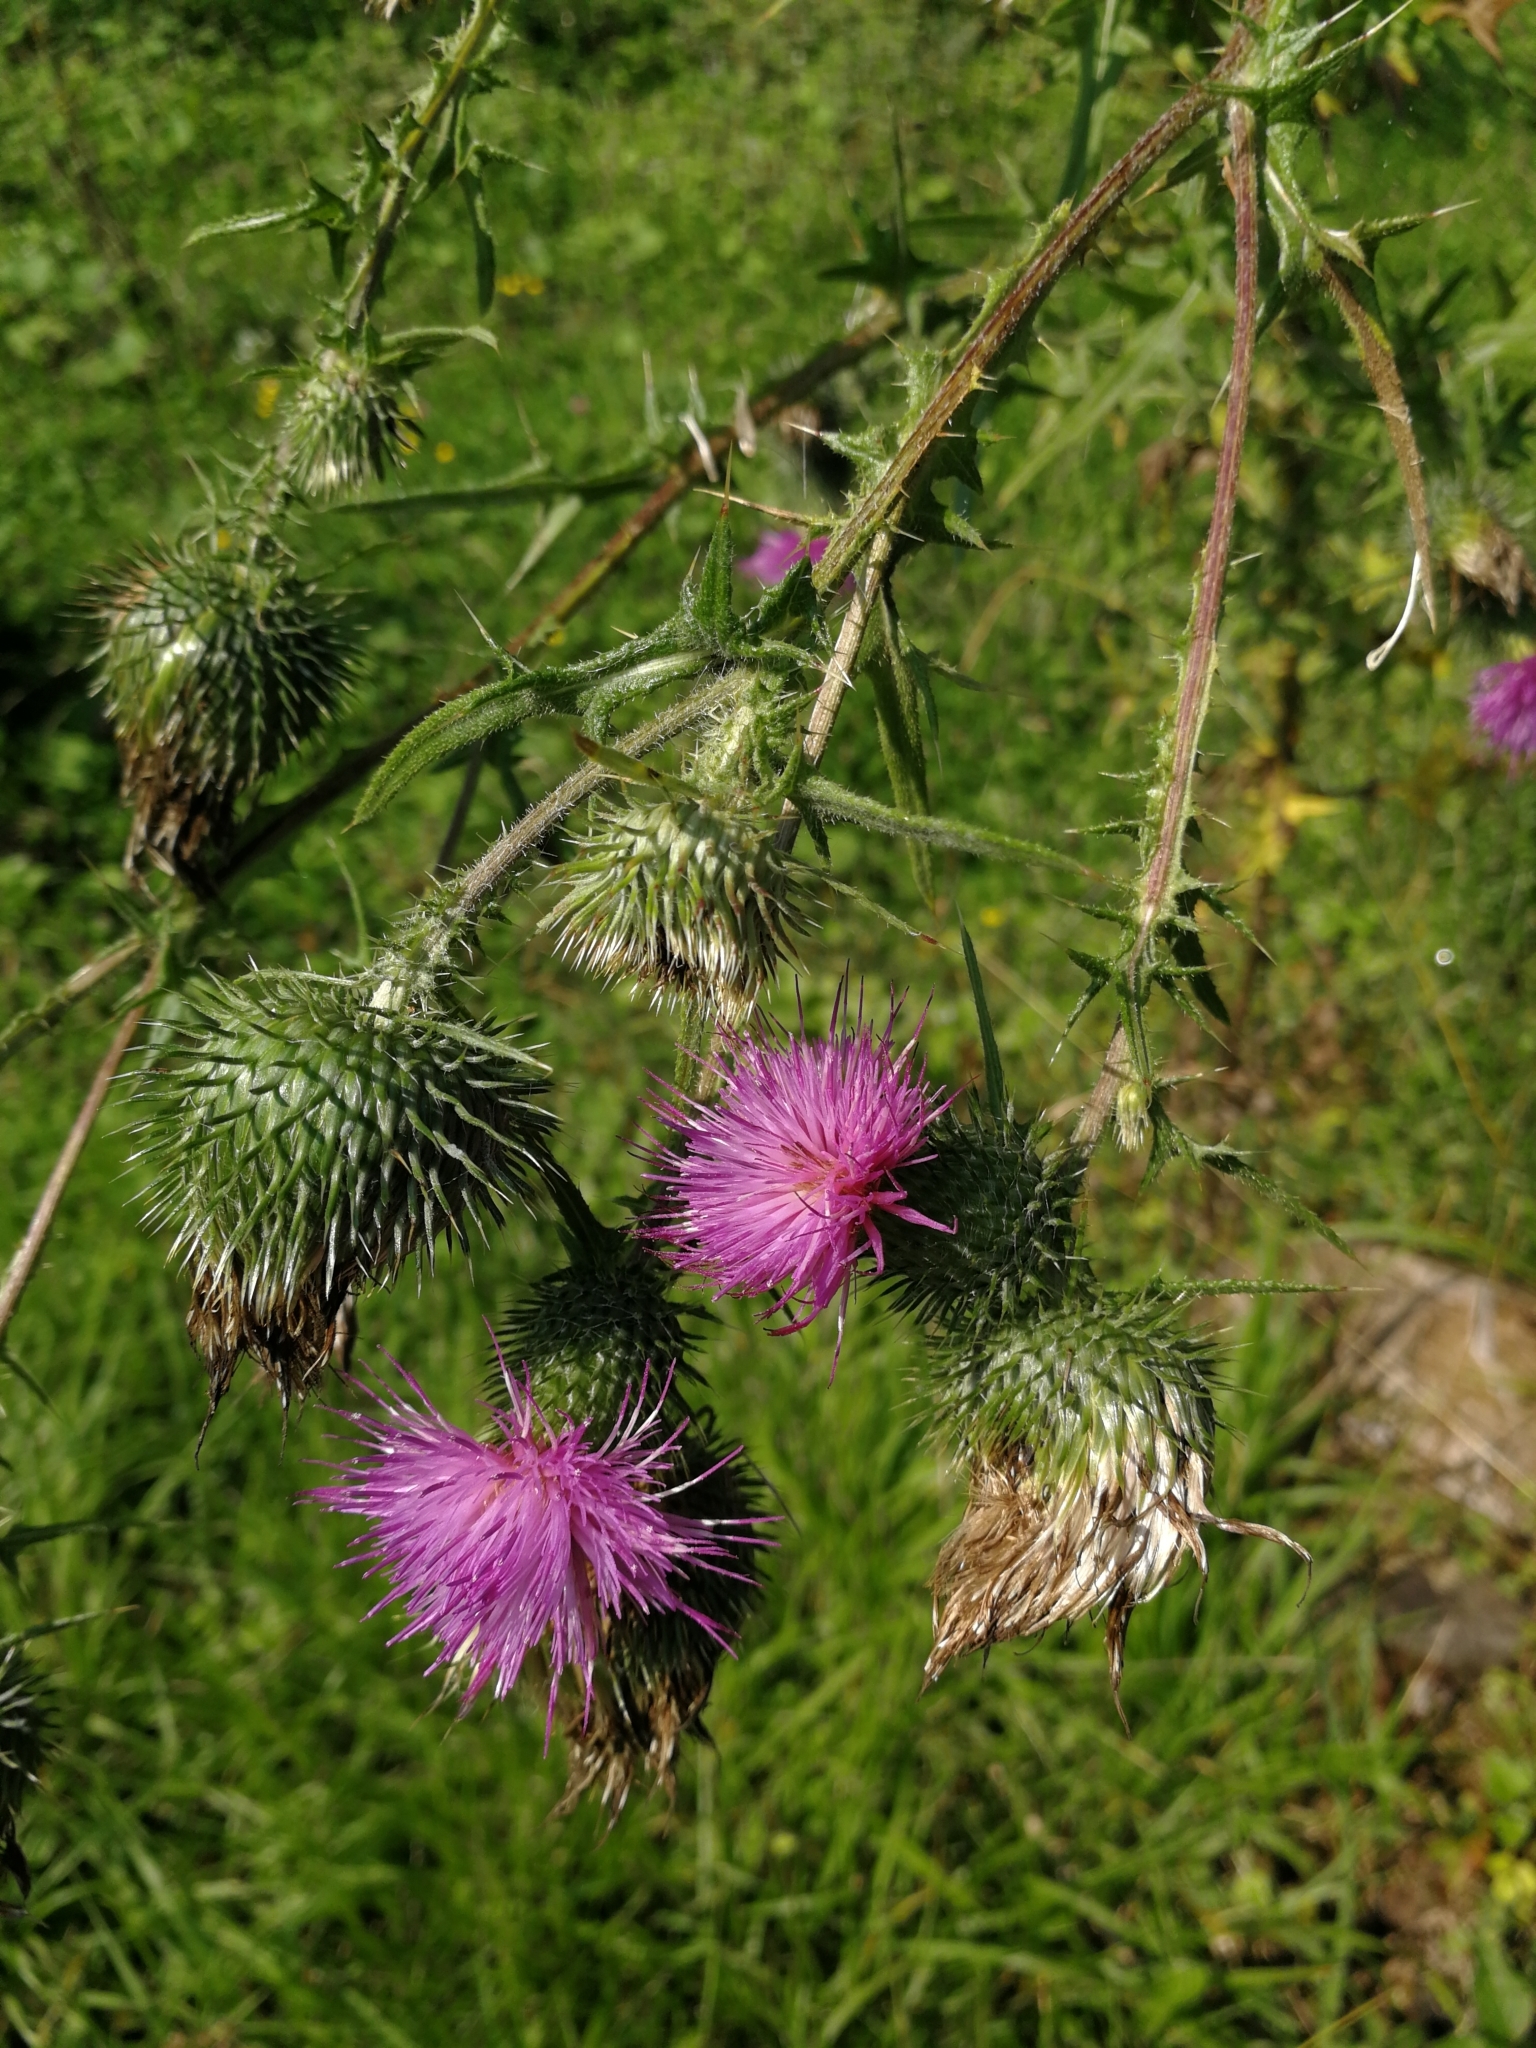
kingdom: Plantae
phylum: Tracheophyta
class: Magnoliopsida
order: Asterales
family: Asteraceae
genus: Cirsium
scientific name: Cirsium vulgare
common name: Bull thistle
